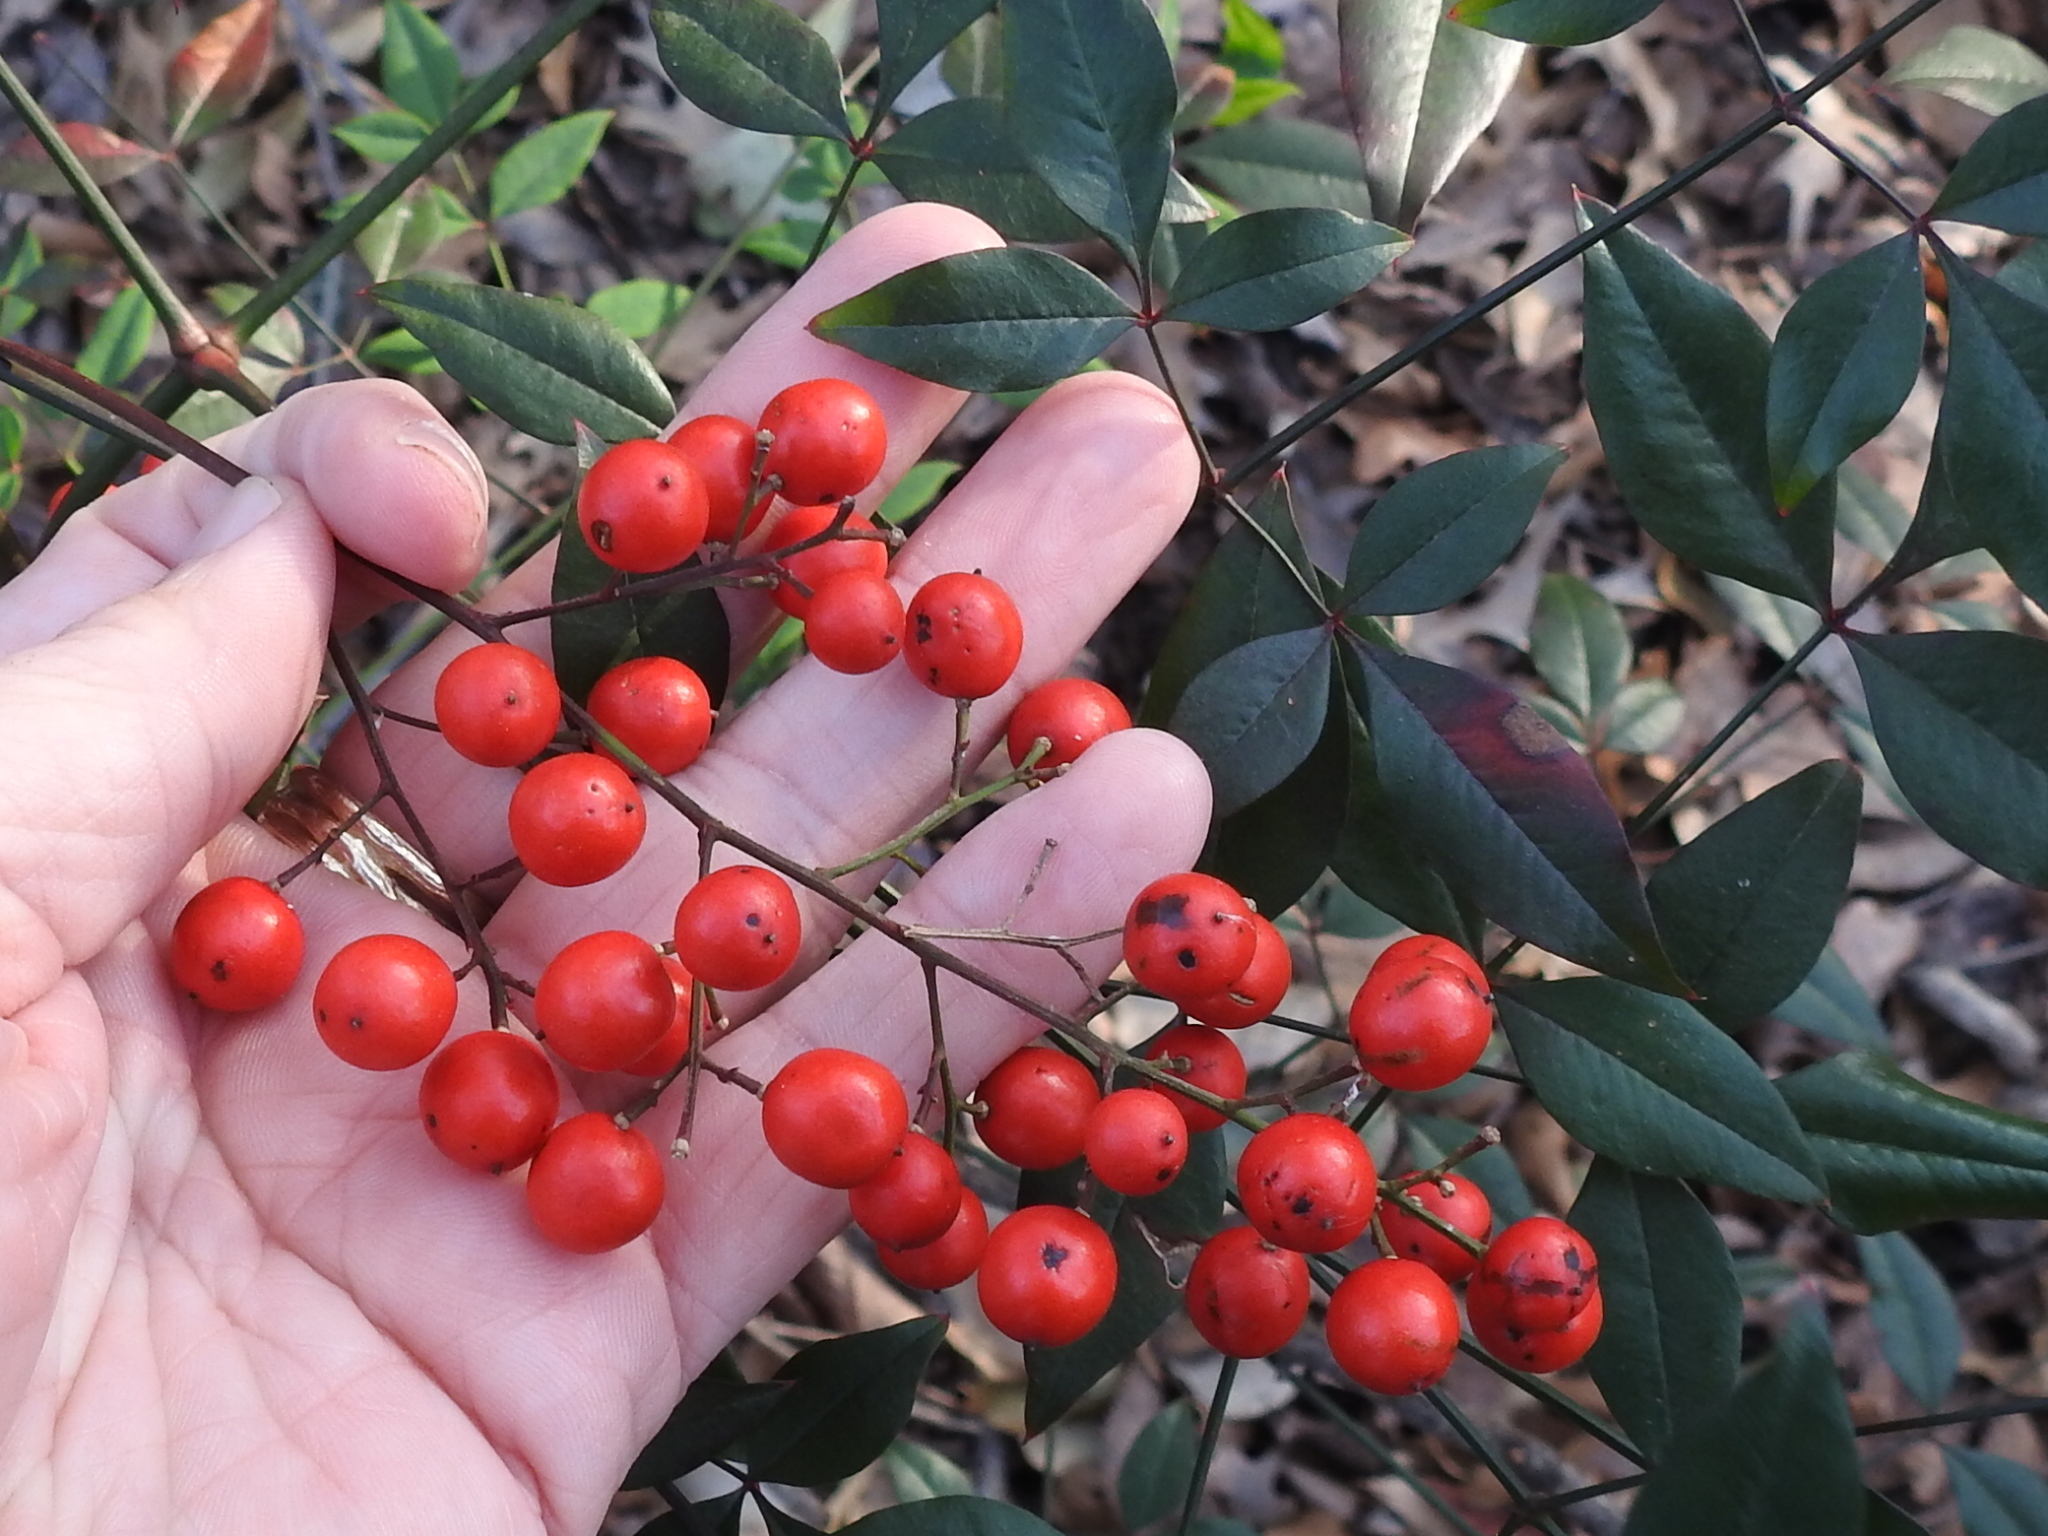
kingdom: Plantae
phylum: Tracheophyta
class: Magnoliopsida
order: Ranunculales
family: Berberidaceae
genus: Nandina
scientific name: Nandina domestica
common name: Sacred bamboo
